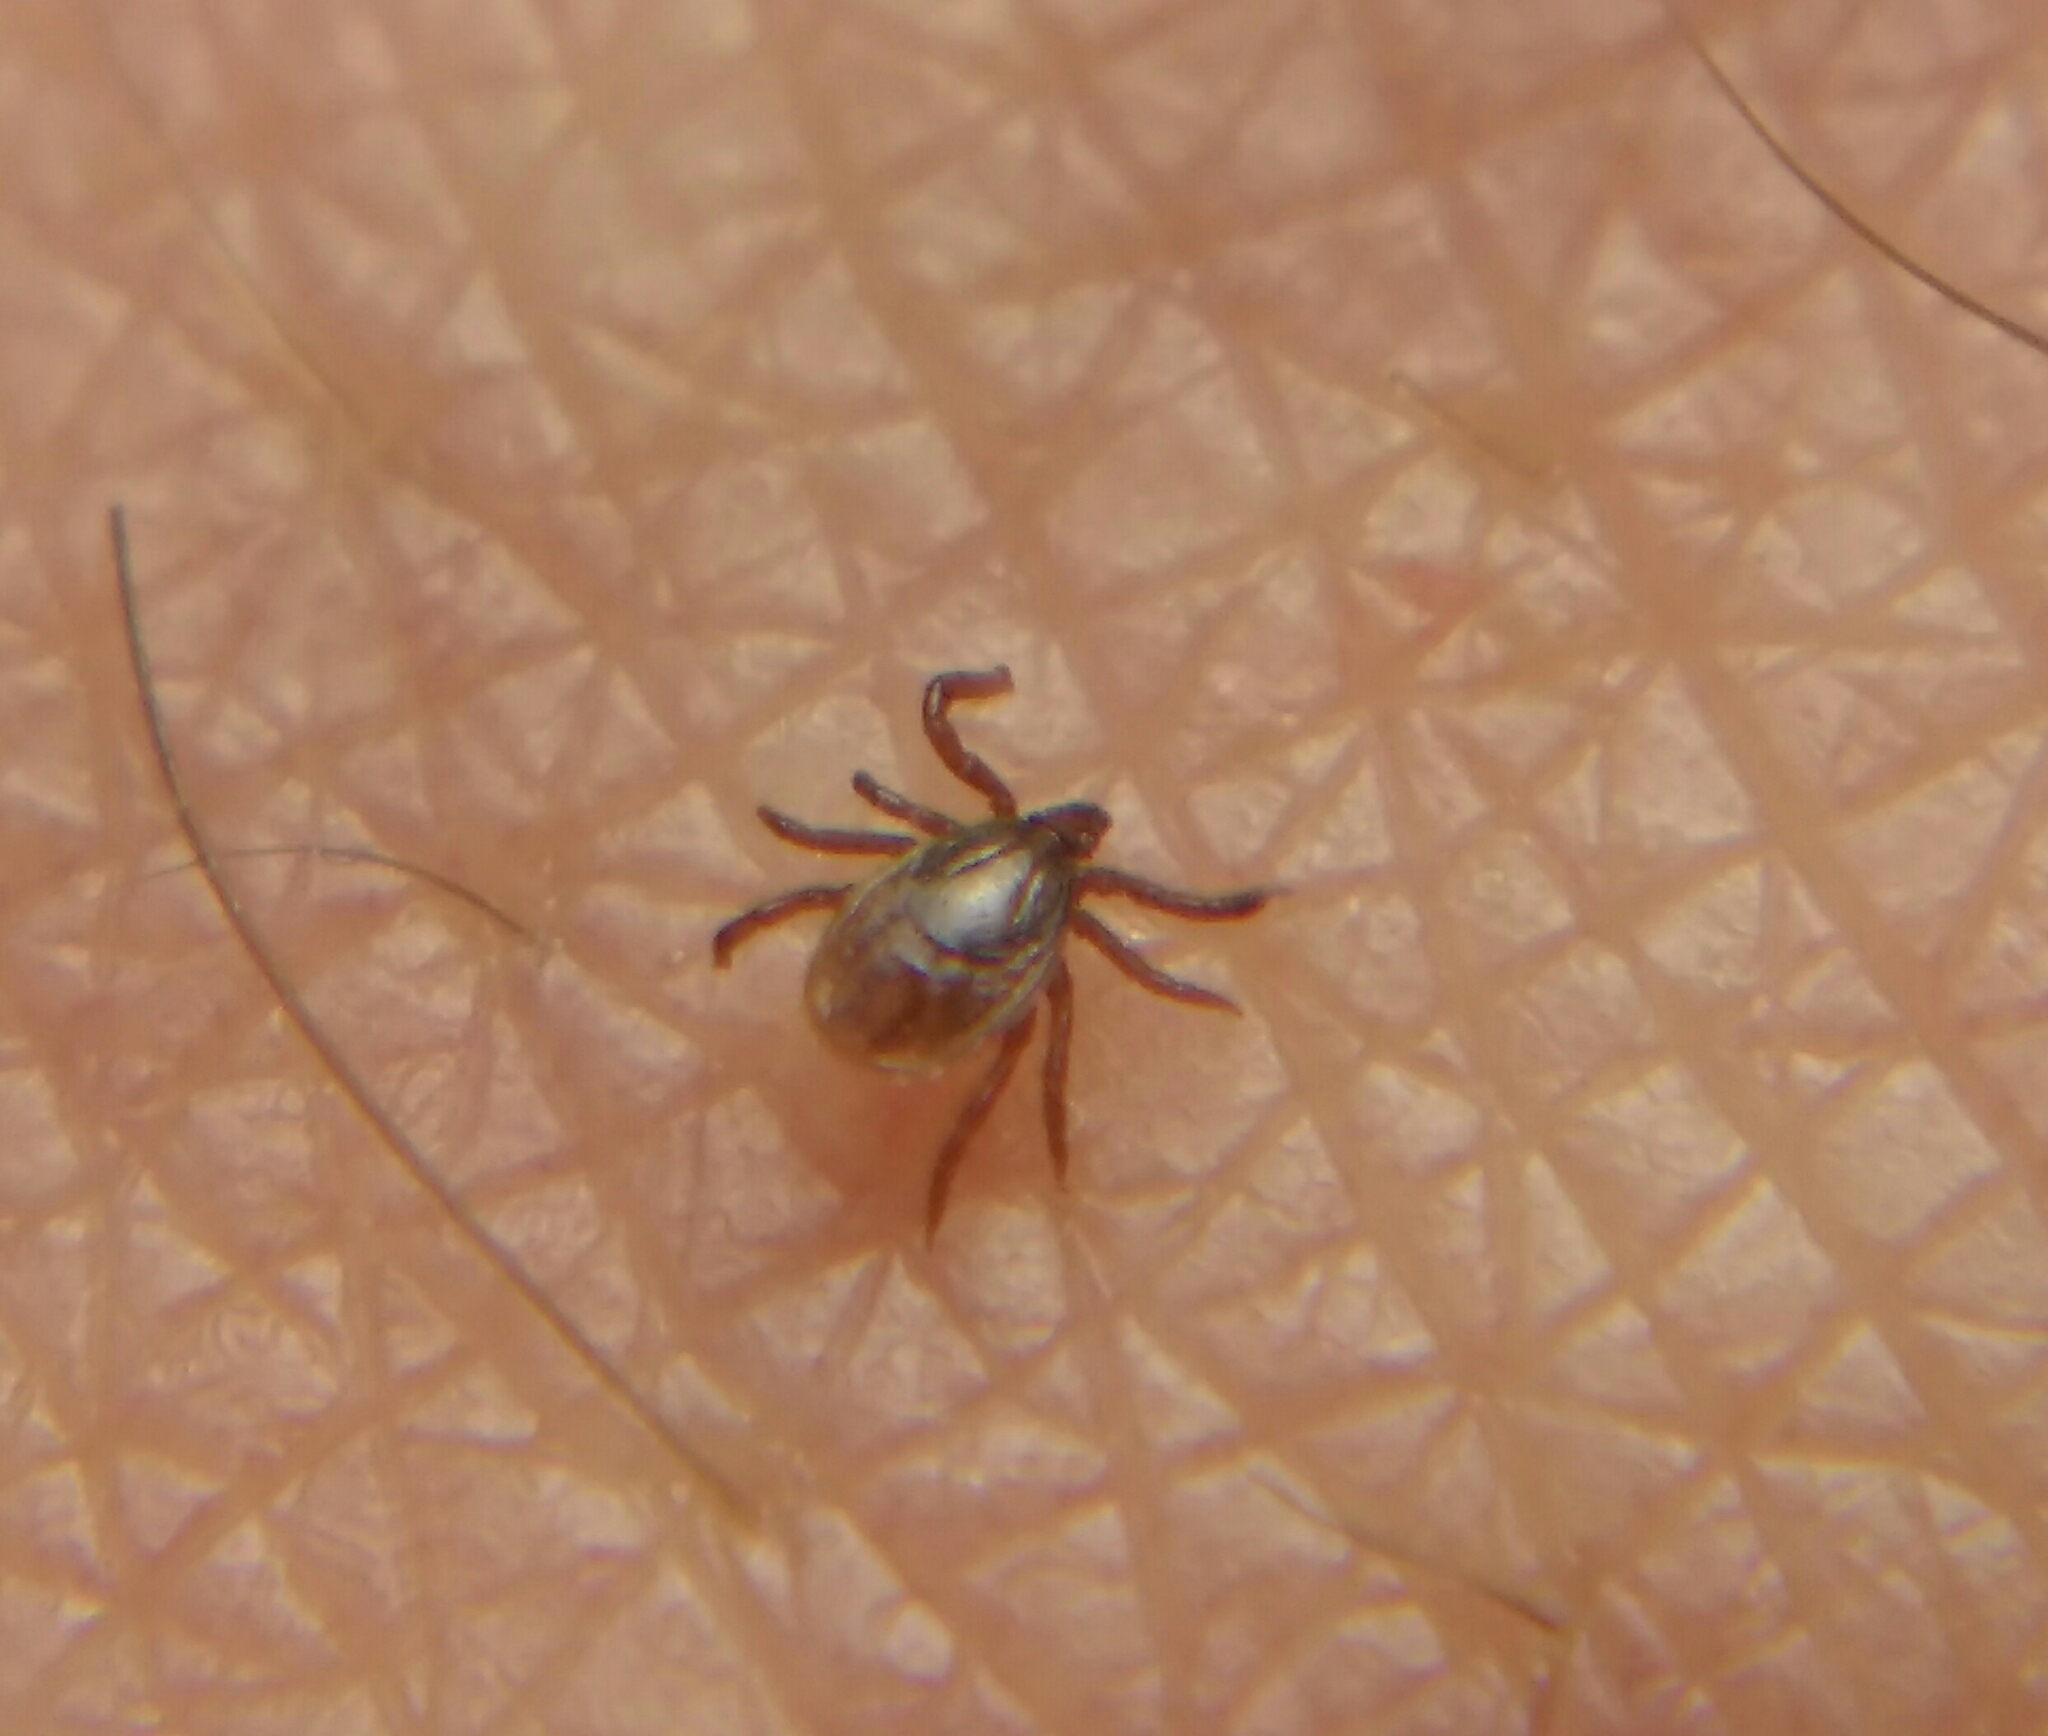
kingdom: Animalia
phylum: Arthropoda
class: Arachnida
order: Ixodida
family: Ixodidae
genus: Ixodes
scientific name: Ixodes ricinus
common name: Castor bean tick
